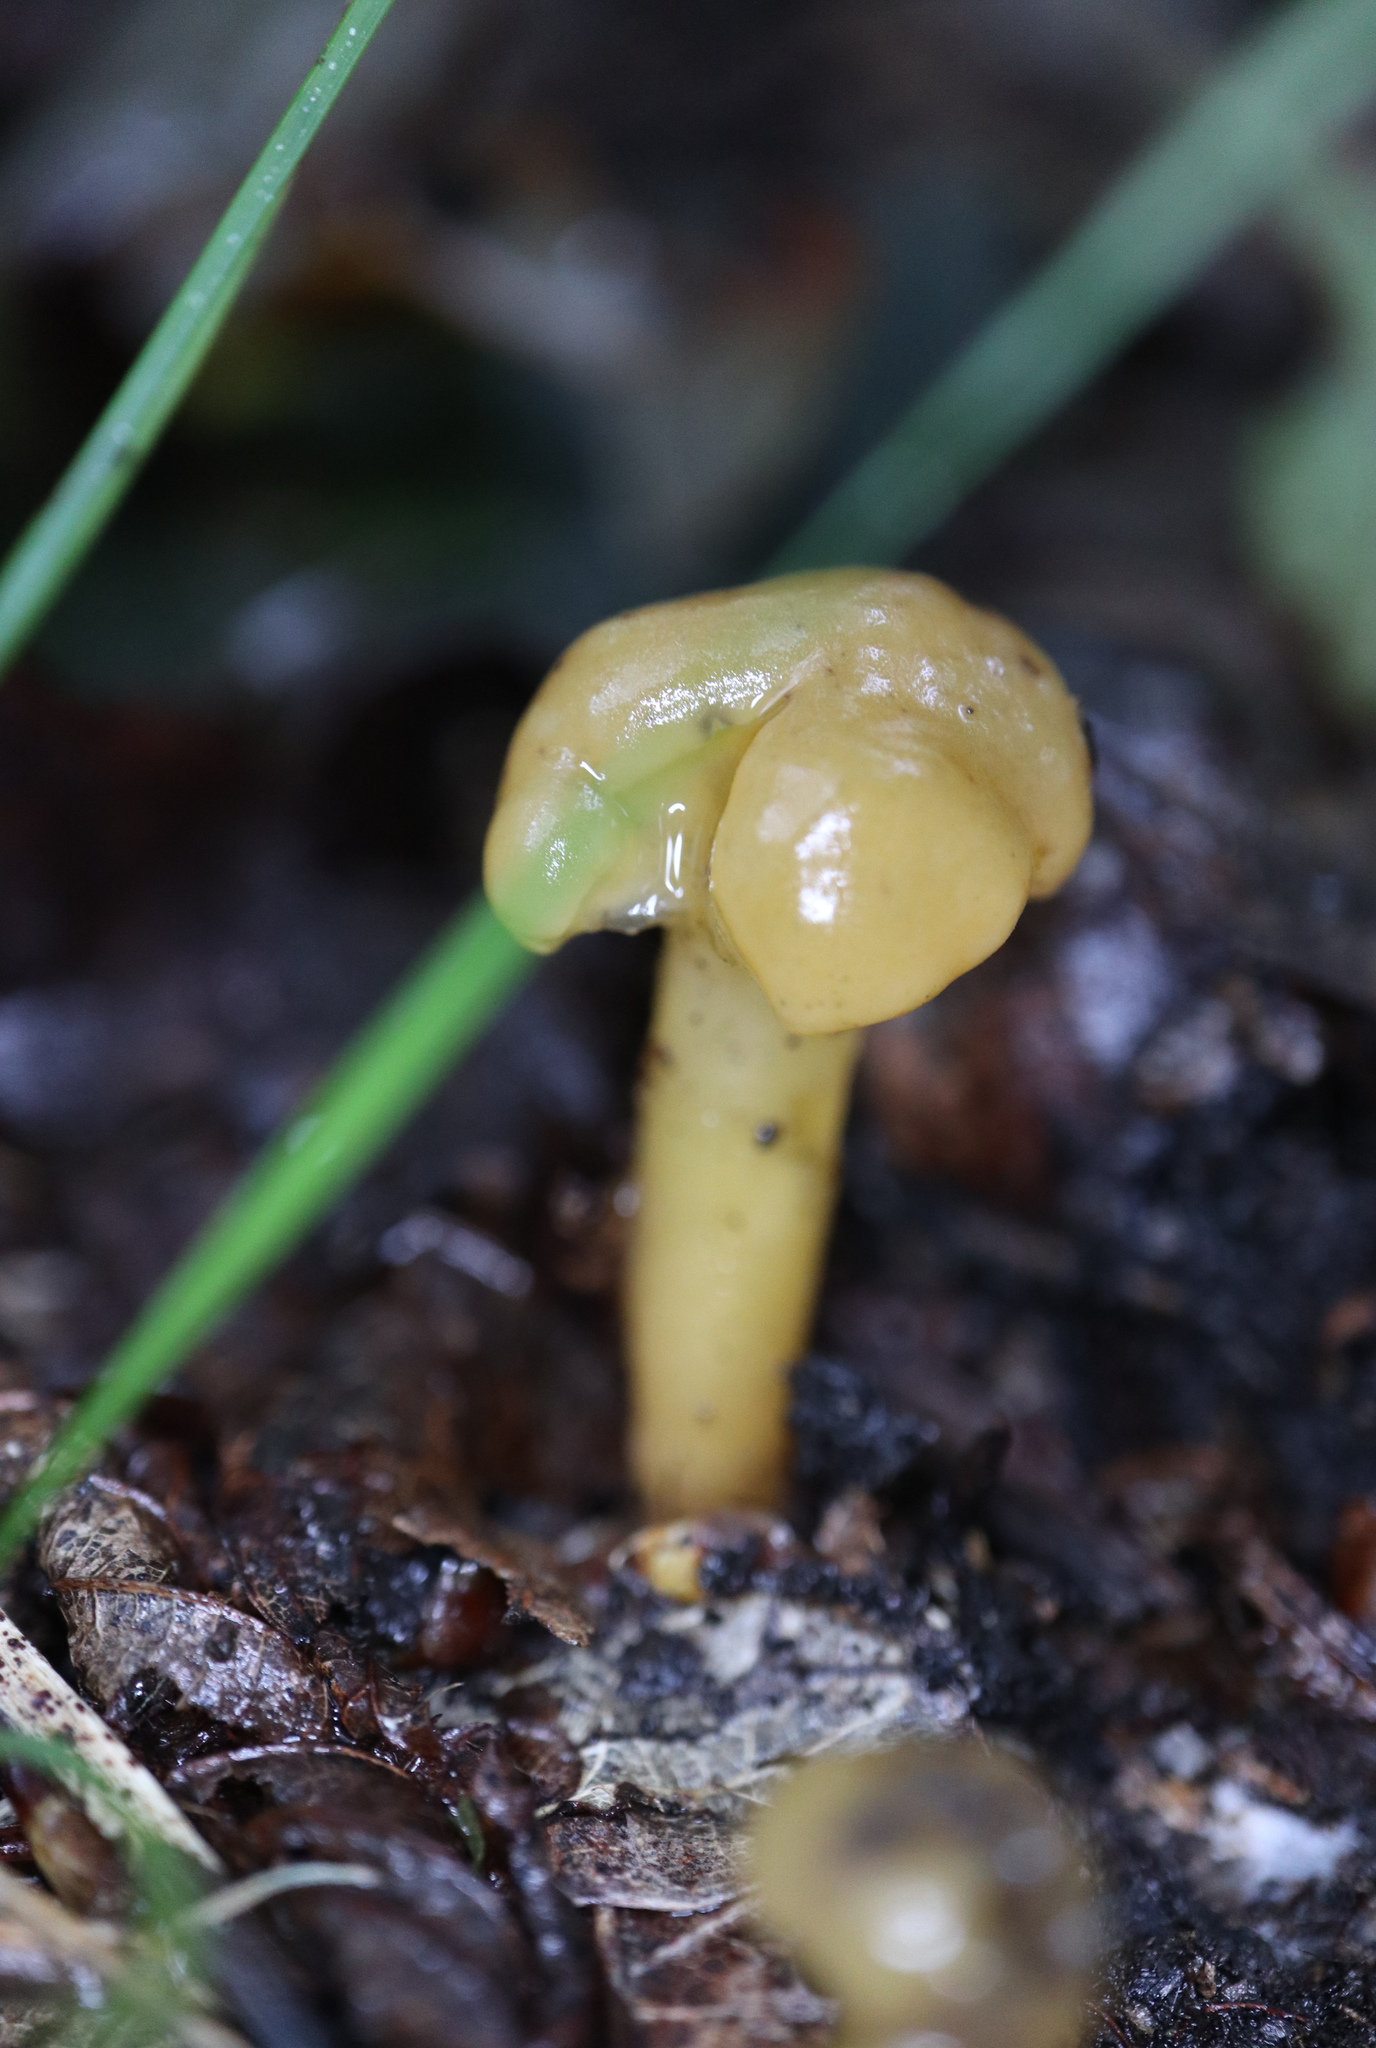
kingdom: Fungi
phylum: Ascomycota
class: Leotiomycetes
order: Leotiales
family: Leotiaceae
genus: Leotia
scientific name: Leotia lubrica
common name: Jellybaby
